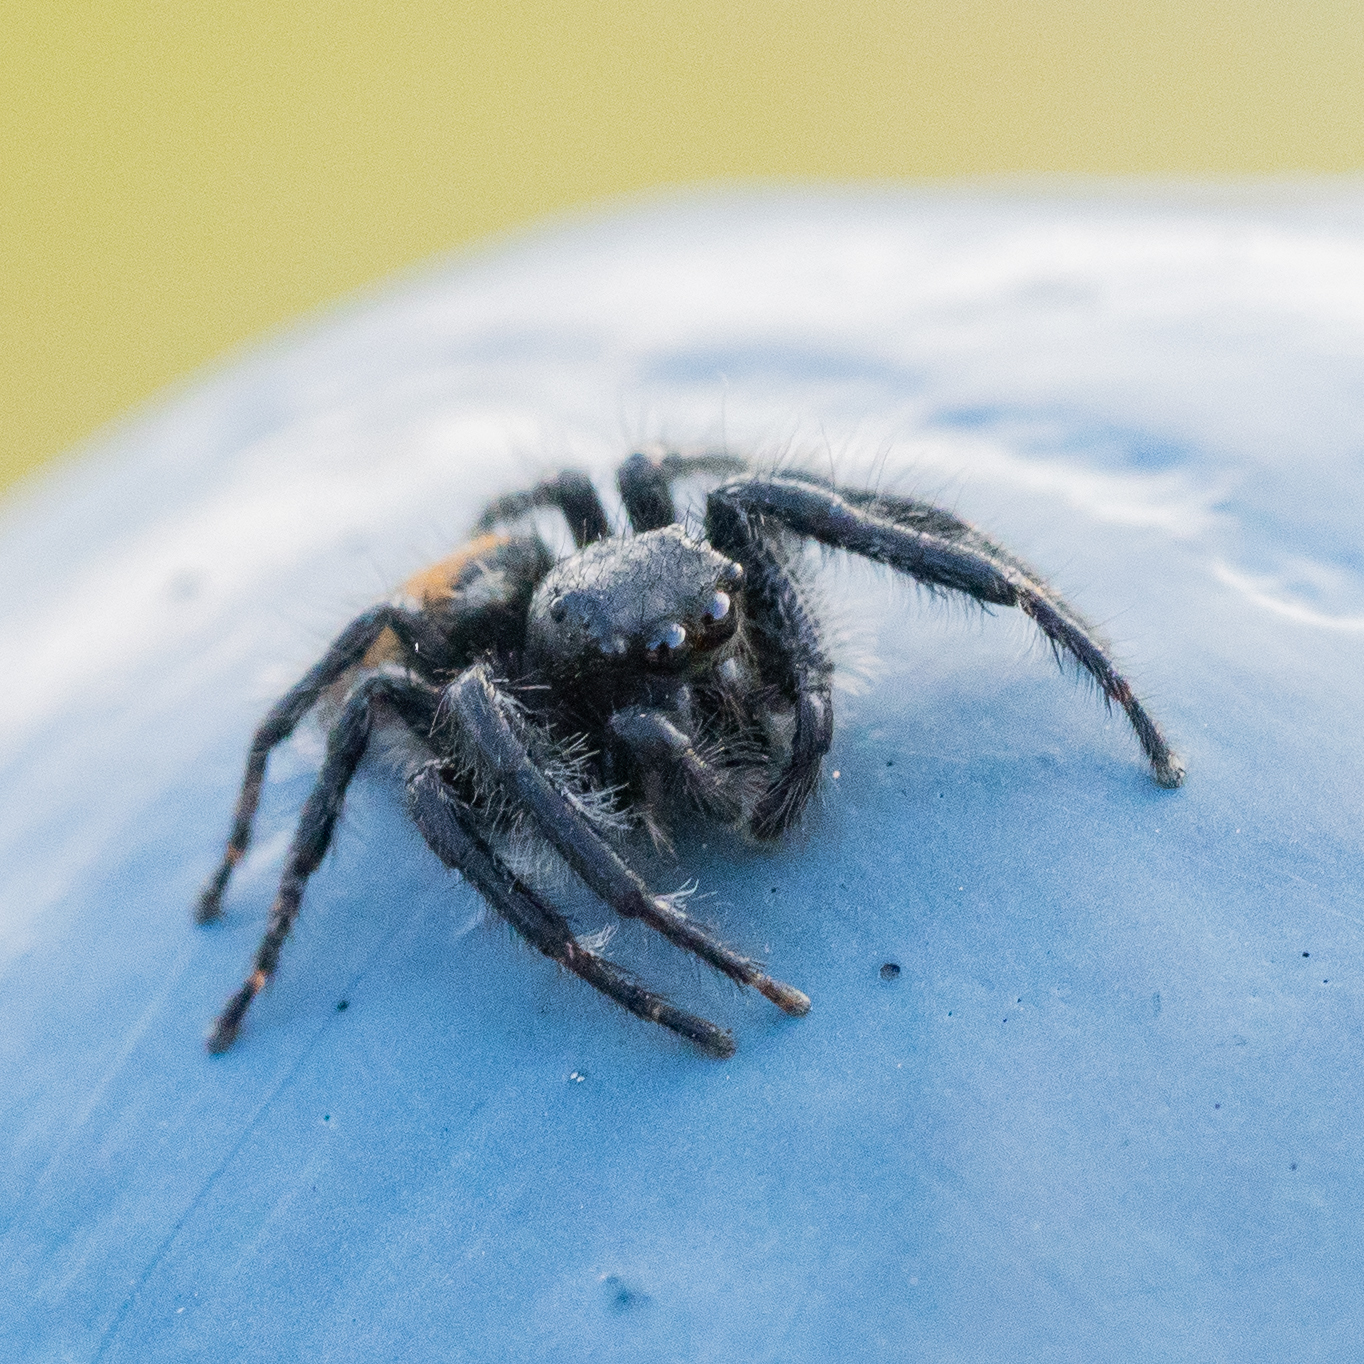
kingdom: Animalia
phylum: Arthropoda
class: Arachnida
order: Araneae
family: Salticidae
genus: Carrhotus
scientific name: Carrhotus xanthogramma
